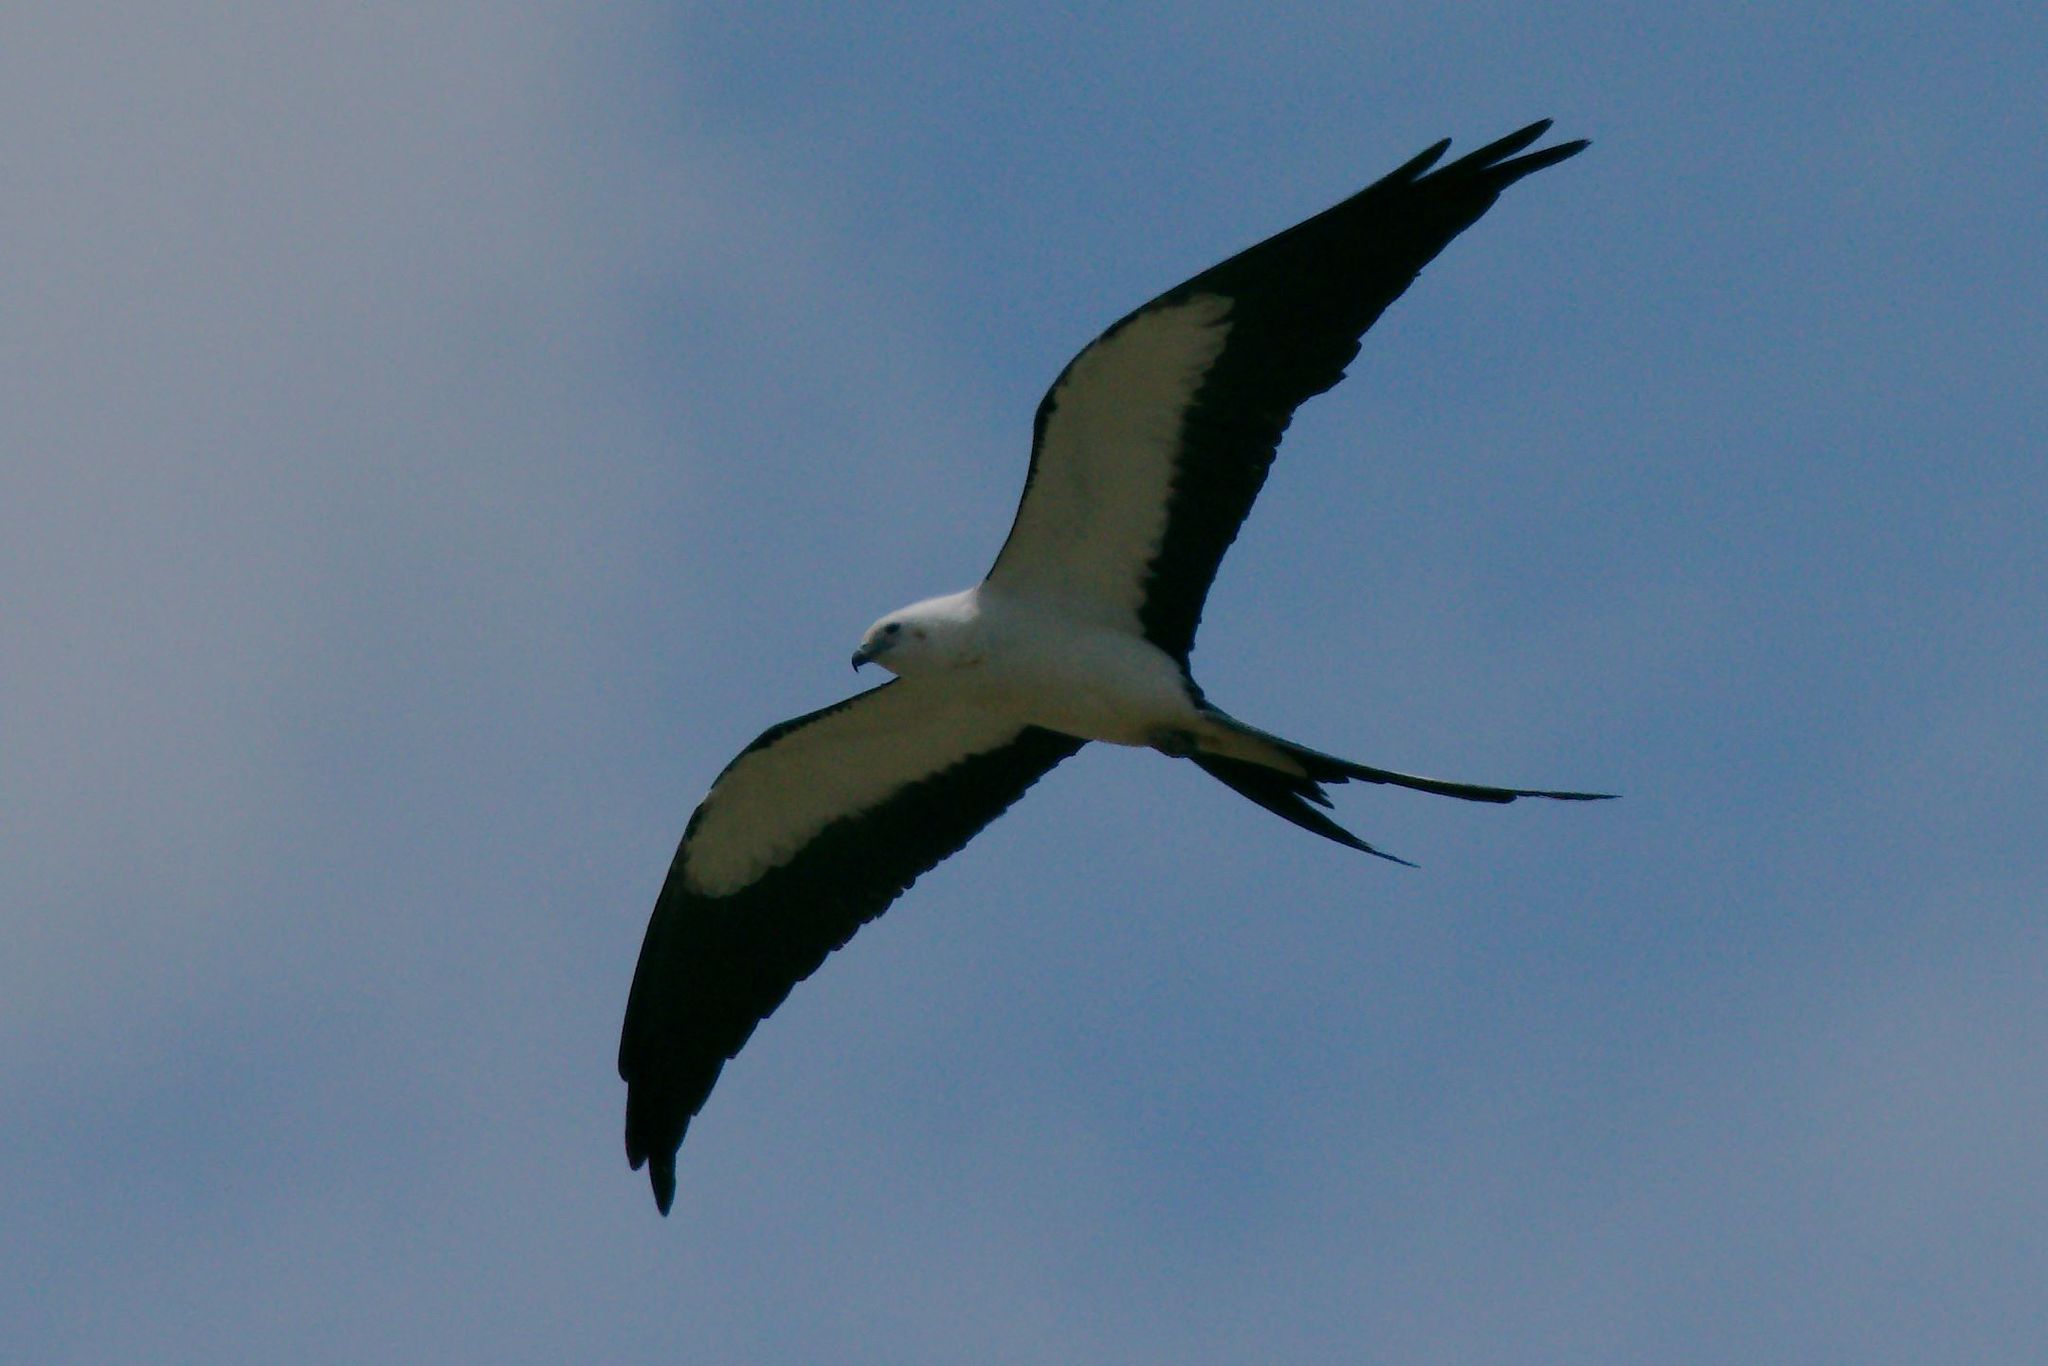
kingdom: Animalia
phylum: Chordata
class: Aves
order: Accipitriformes
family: Accipitridae
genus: Elanoides
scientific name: Elanoides forficatus
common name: Swallow-tailed kite
